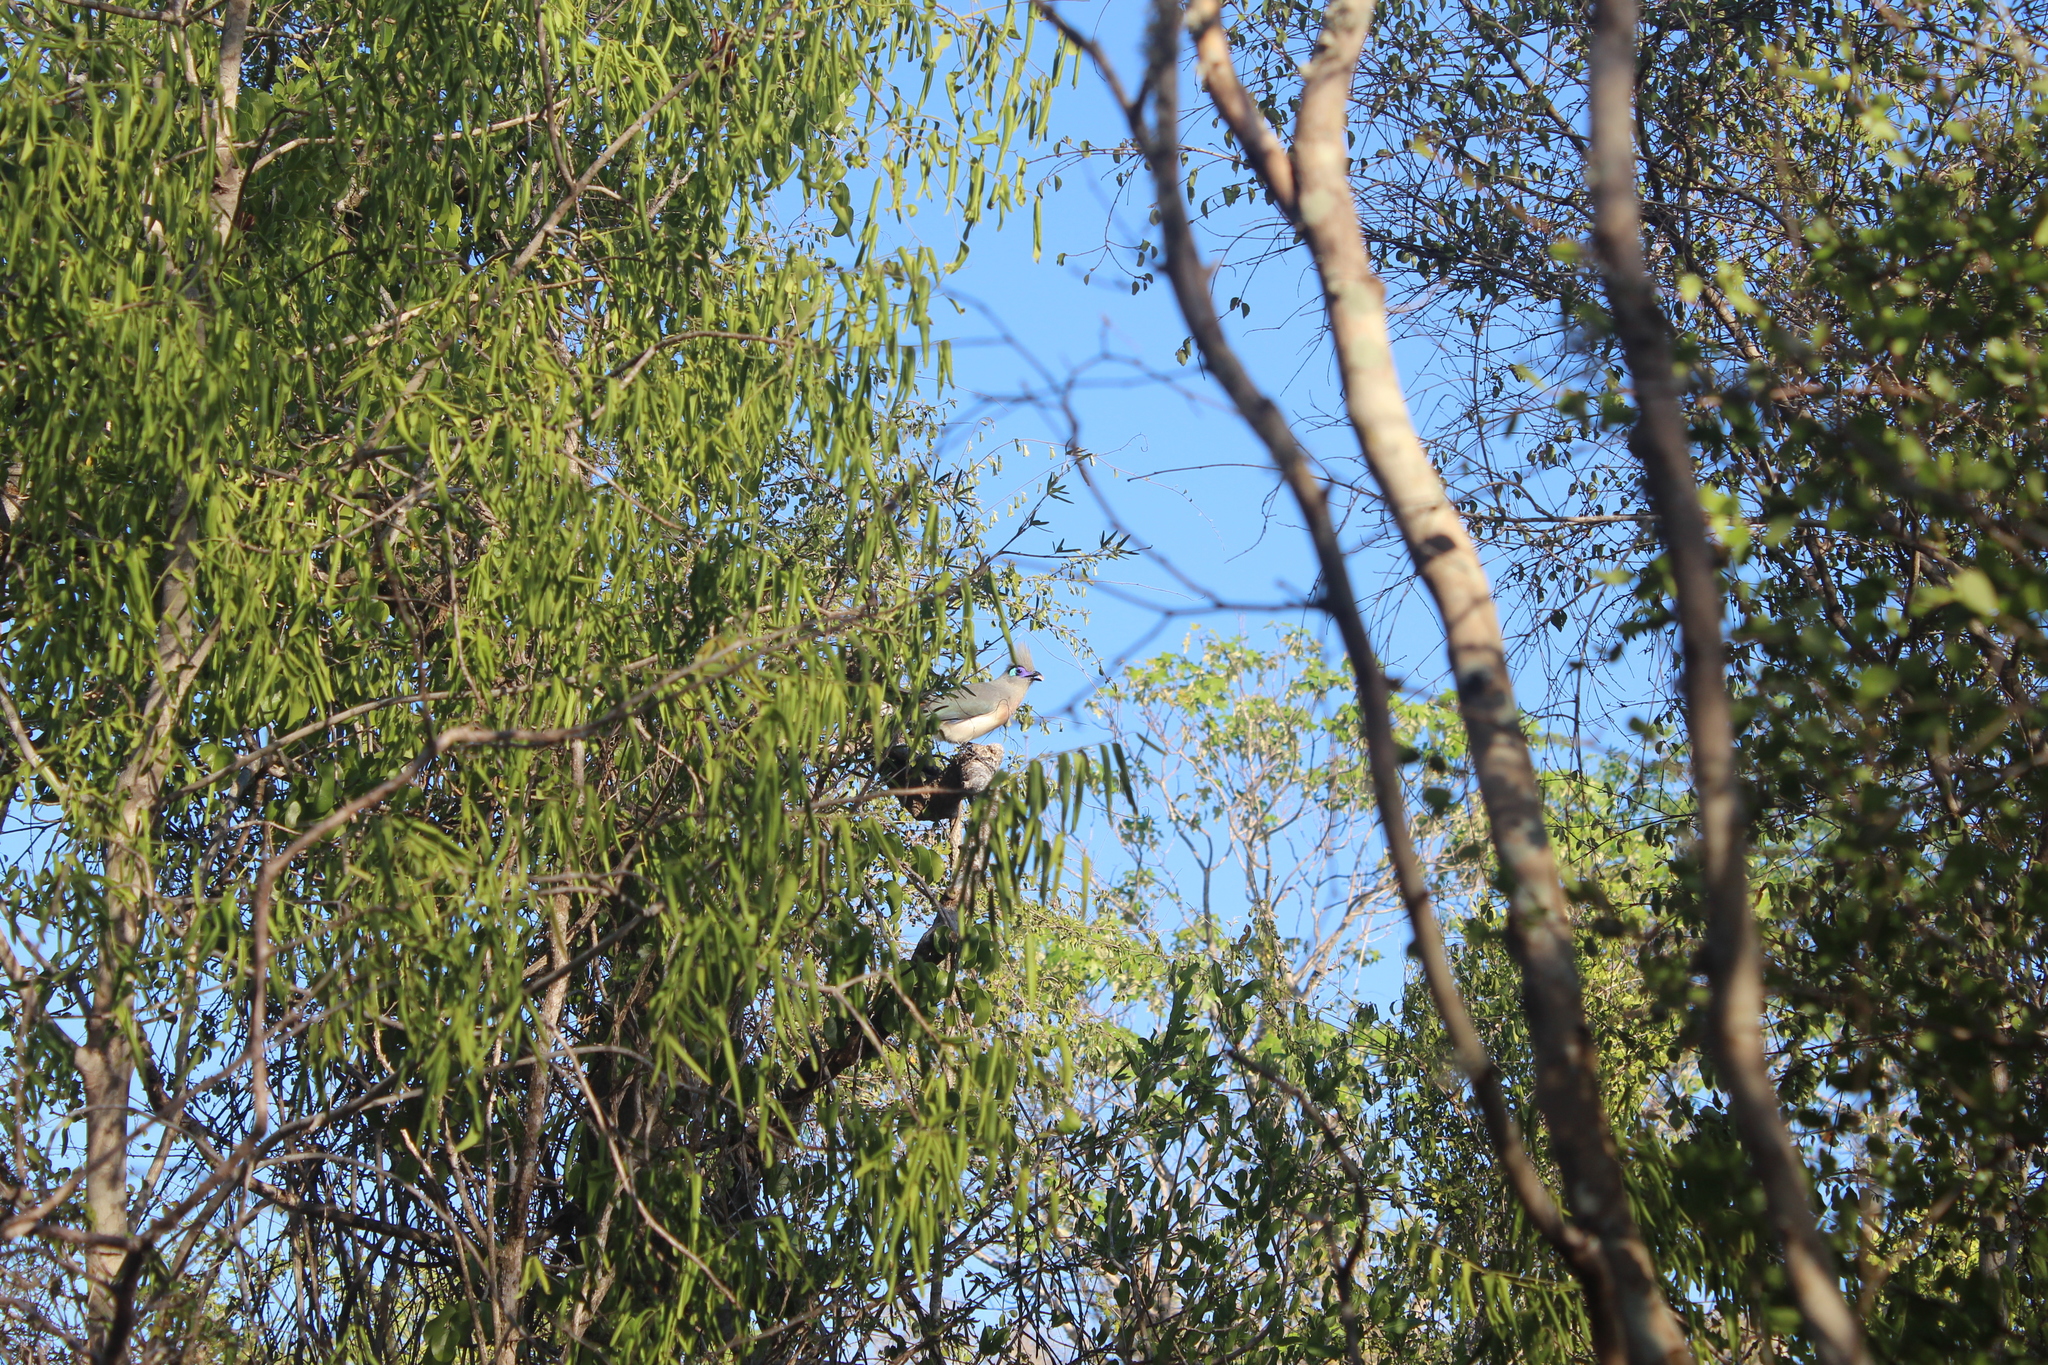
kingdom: Animalia
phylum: Chordata
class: Aves
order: Cuculiformes
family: Cuculidae
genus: Coua
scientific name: Coua cristata
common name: Crested coua
